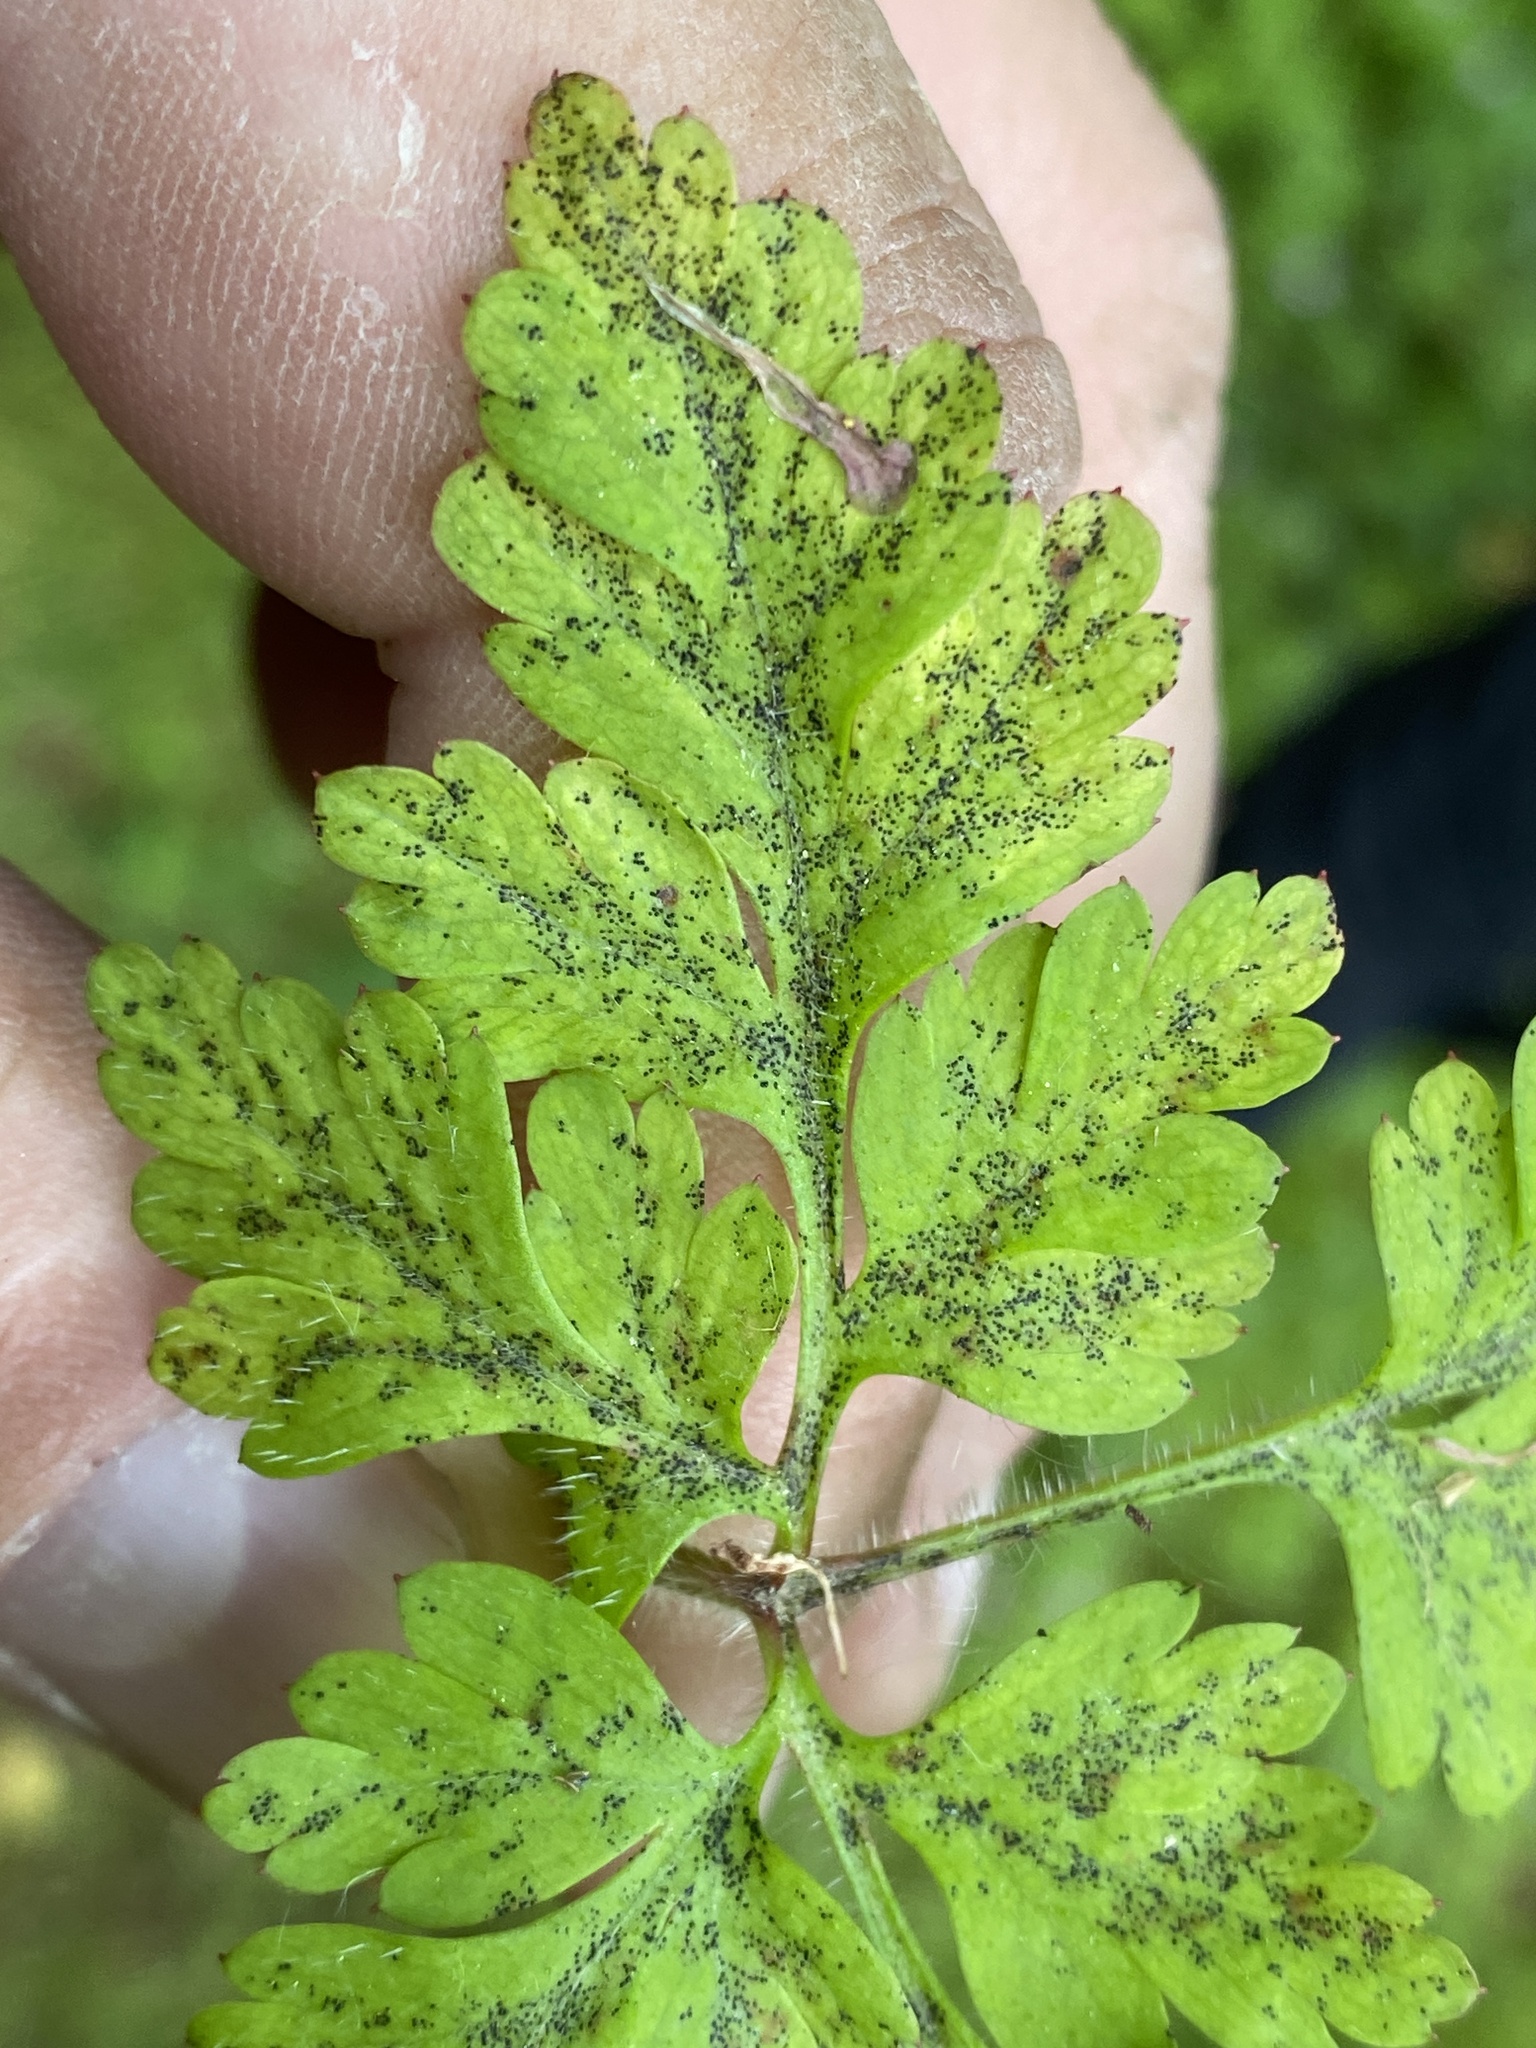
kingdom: Fungi
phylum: Ascomycota
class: Dothideomycetes
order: Venturiales
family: Venturiaceae
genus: Coleroa
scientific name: Coleroa robertiani
